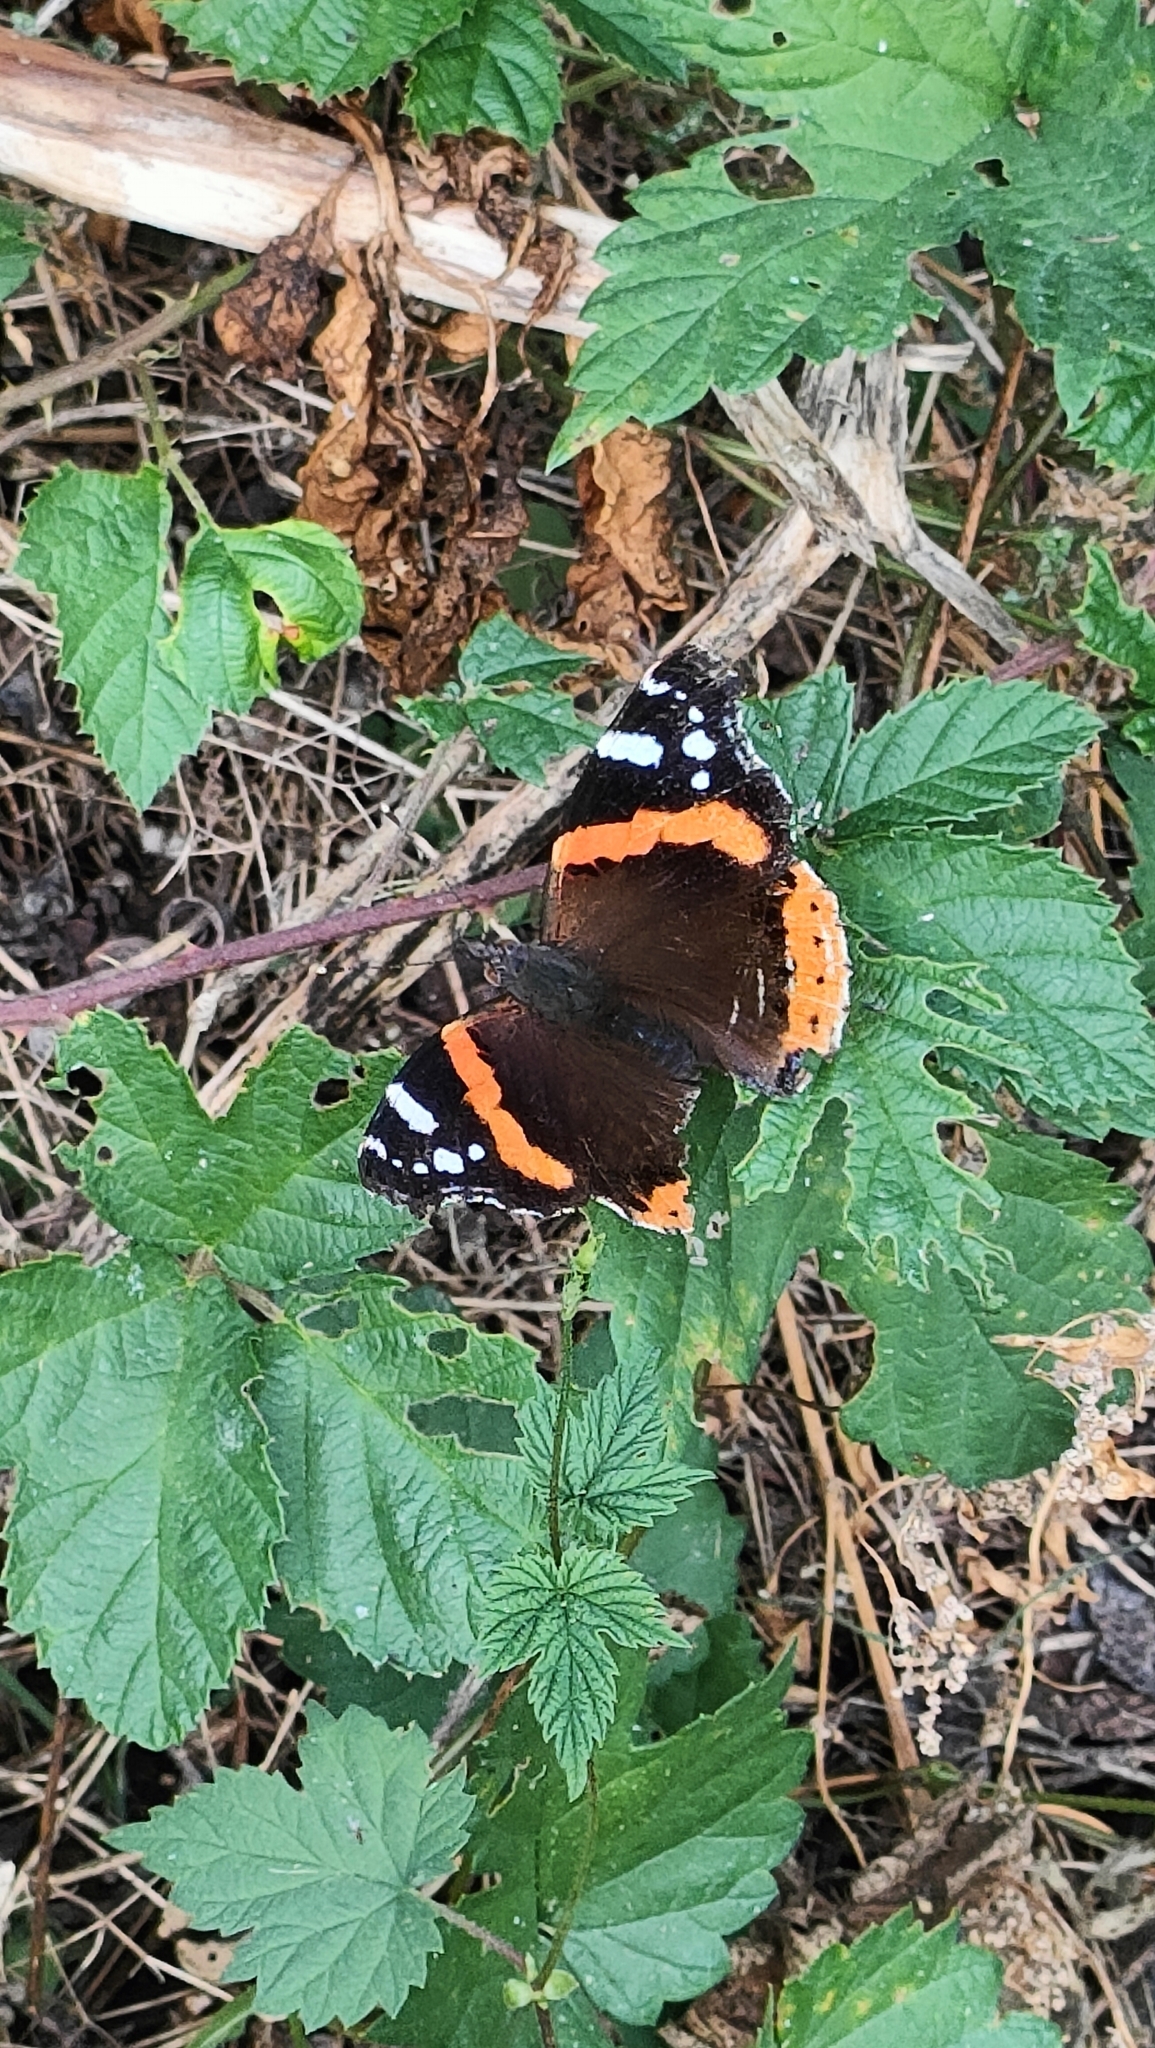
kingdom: Animalia
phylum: Arthropoda
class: Insecta
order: Lepidoptera
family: Nymphalidae
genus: Vanessa
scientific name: Vanessa atalanta
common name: Red admiral
